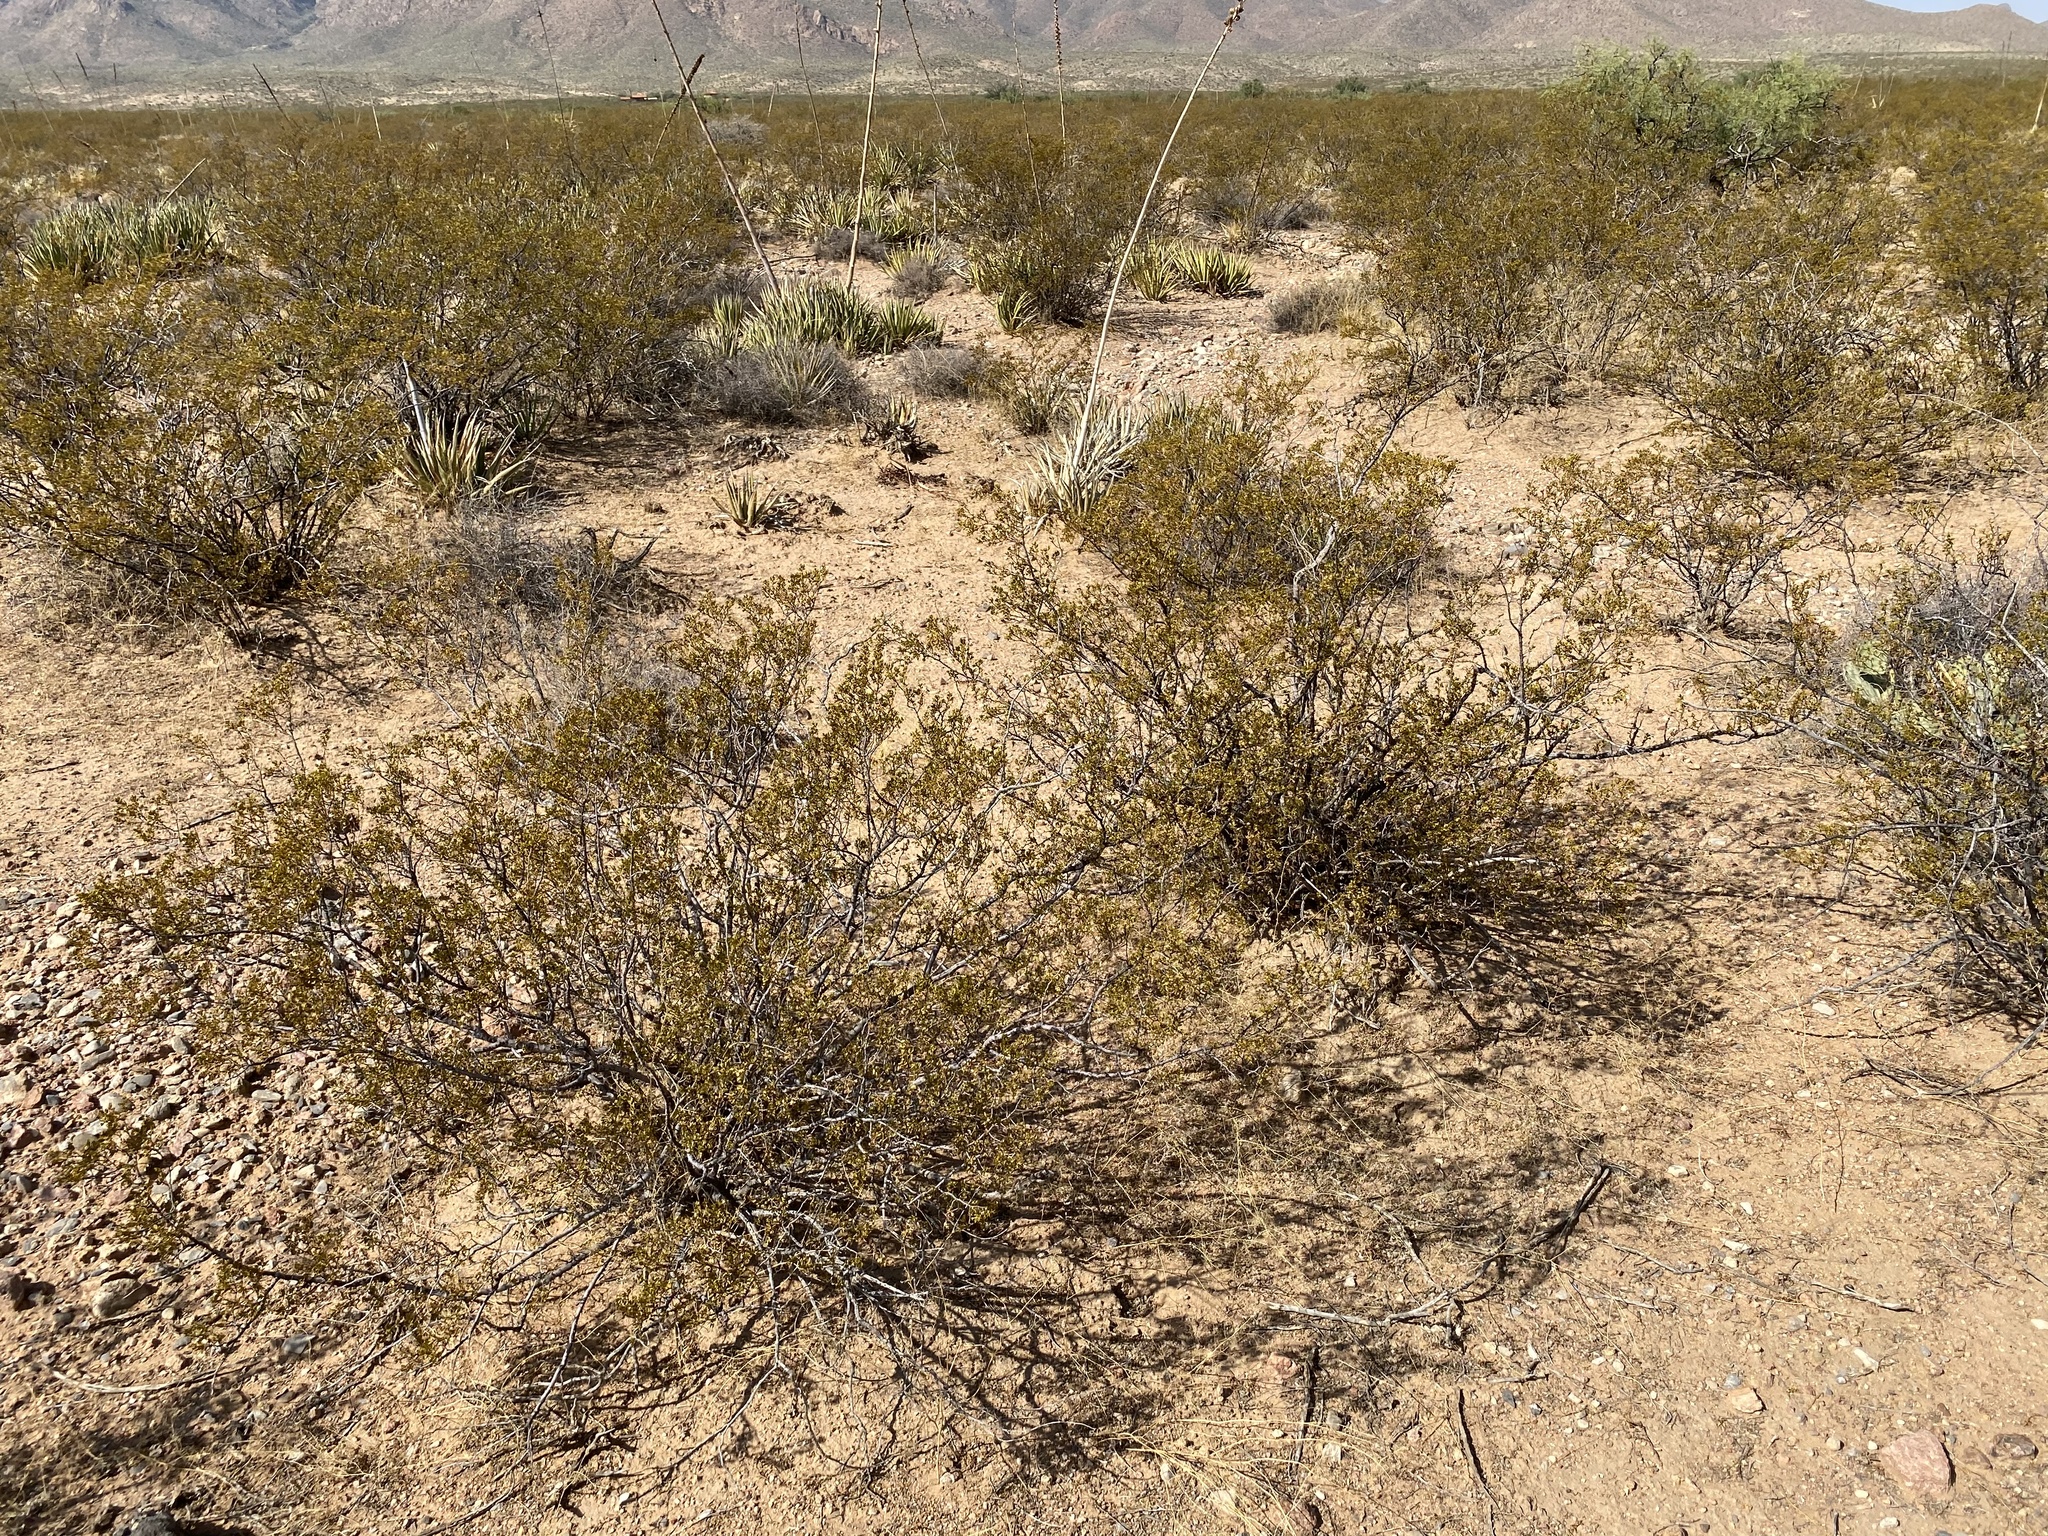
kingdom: Plantae
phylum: Tracheophyta
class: Magnoliopsida
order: Zygophyllales
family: Zygophyllaceae
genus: Larrea
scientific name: Larrea tridentata
